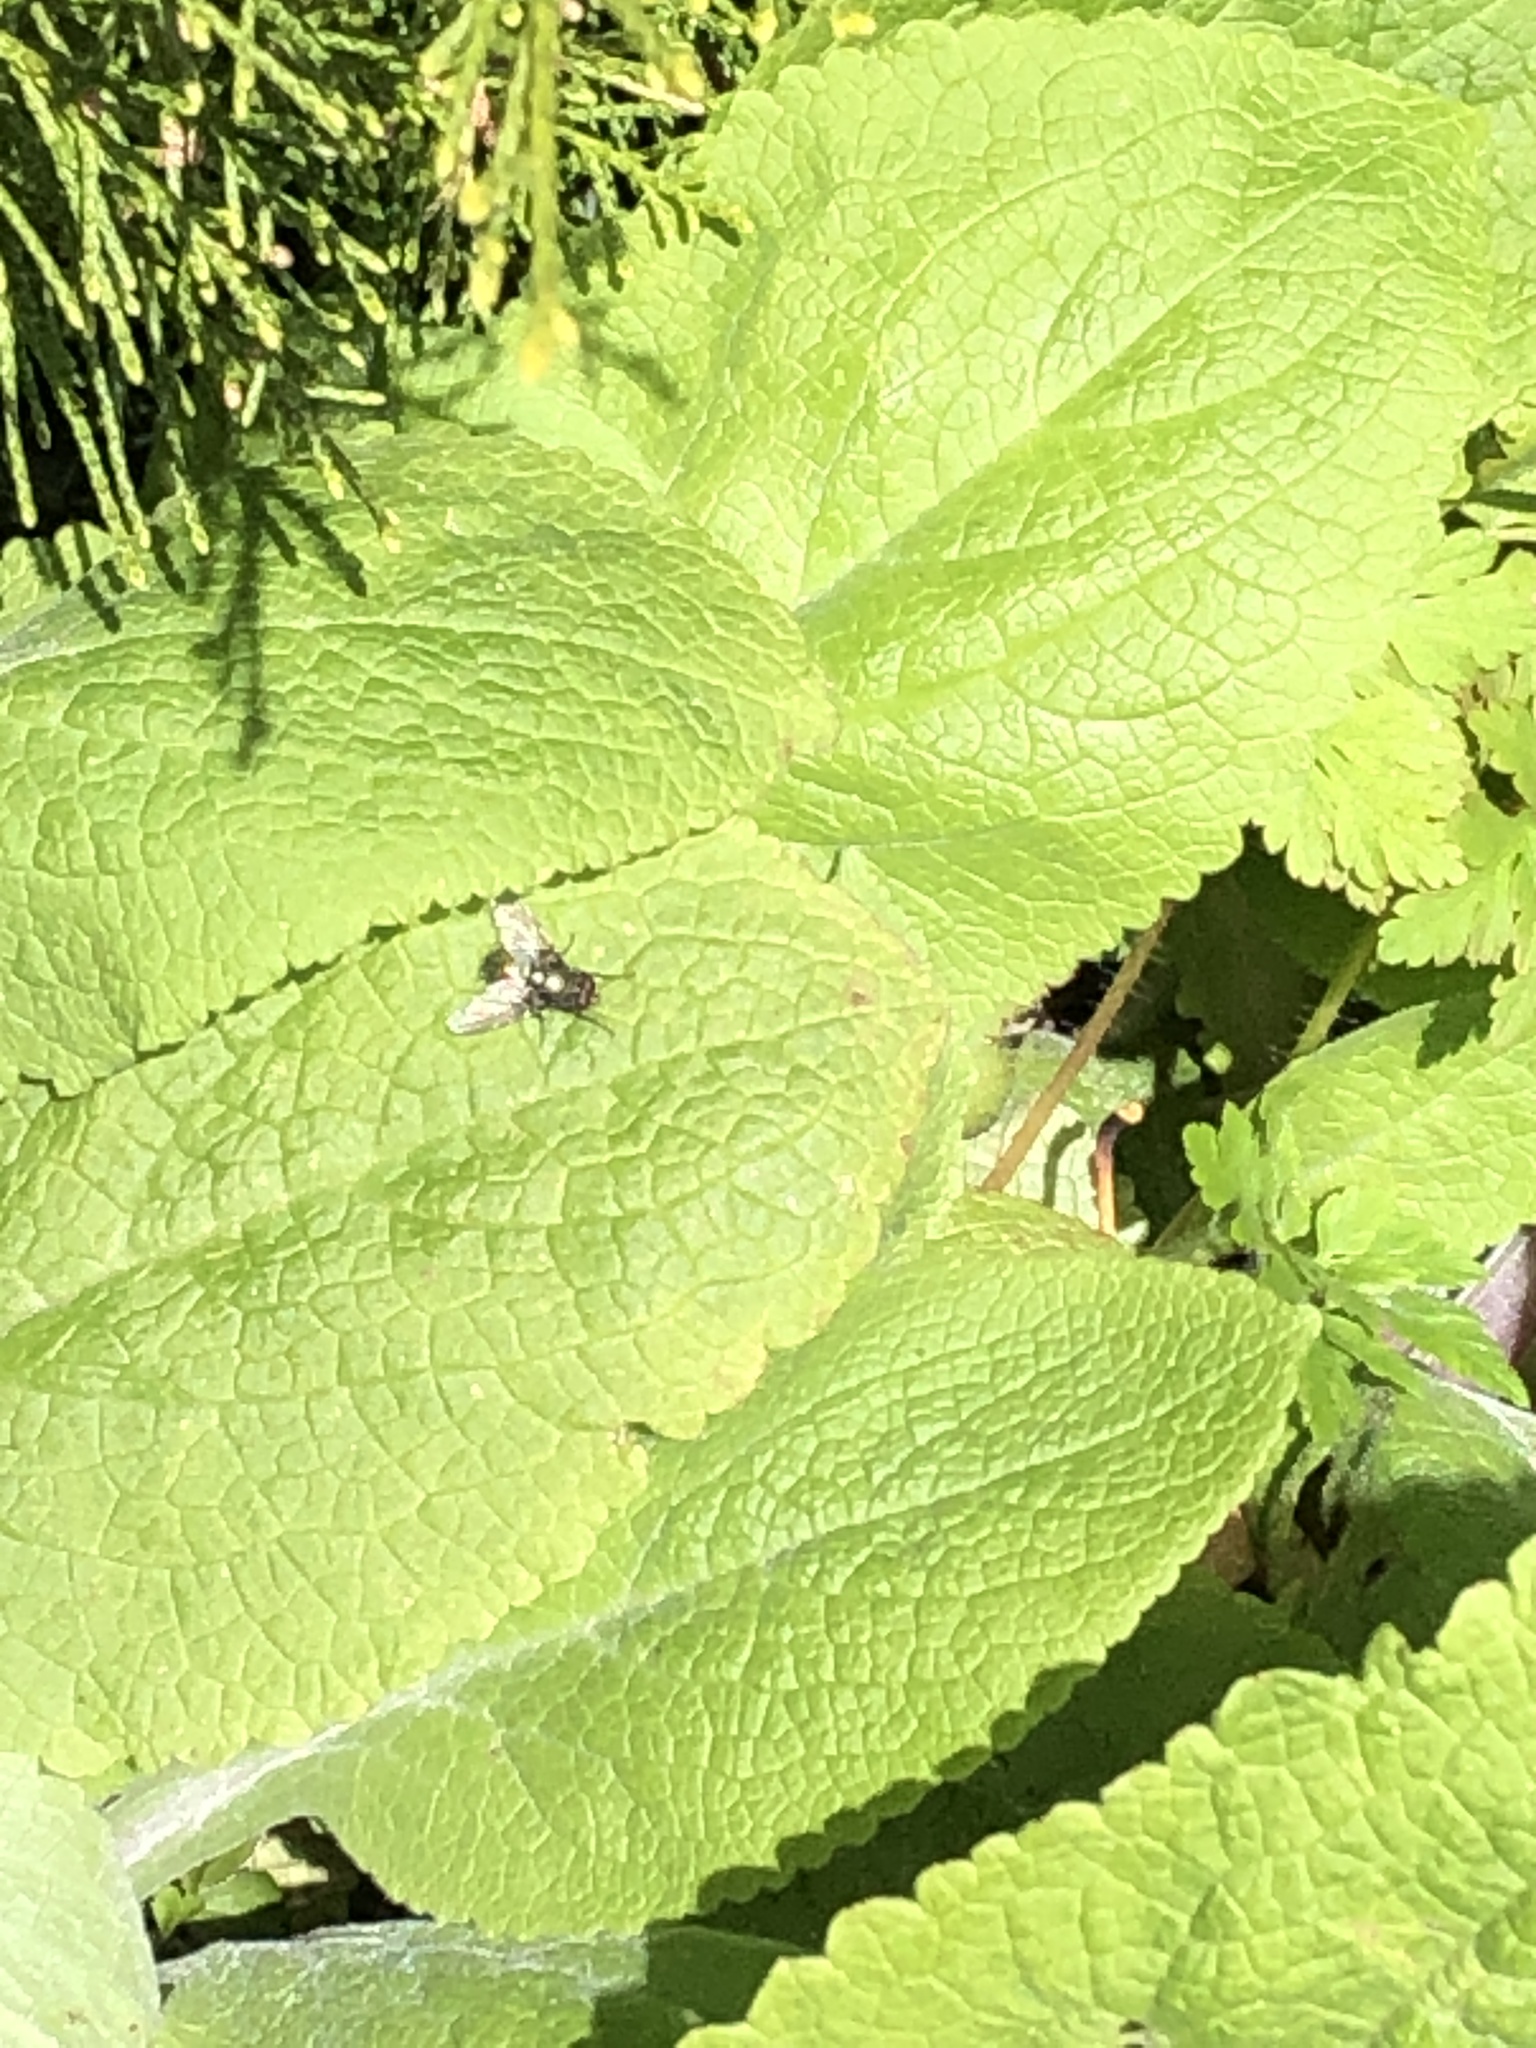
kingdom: Animalia
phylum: Arthropoda
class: Insecta
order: Diptera
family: Muscidae
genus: Dasyphora
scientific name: Dasyphora cyanella
